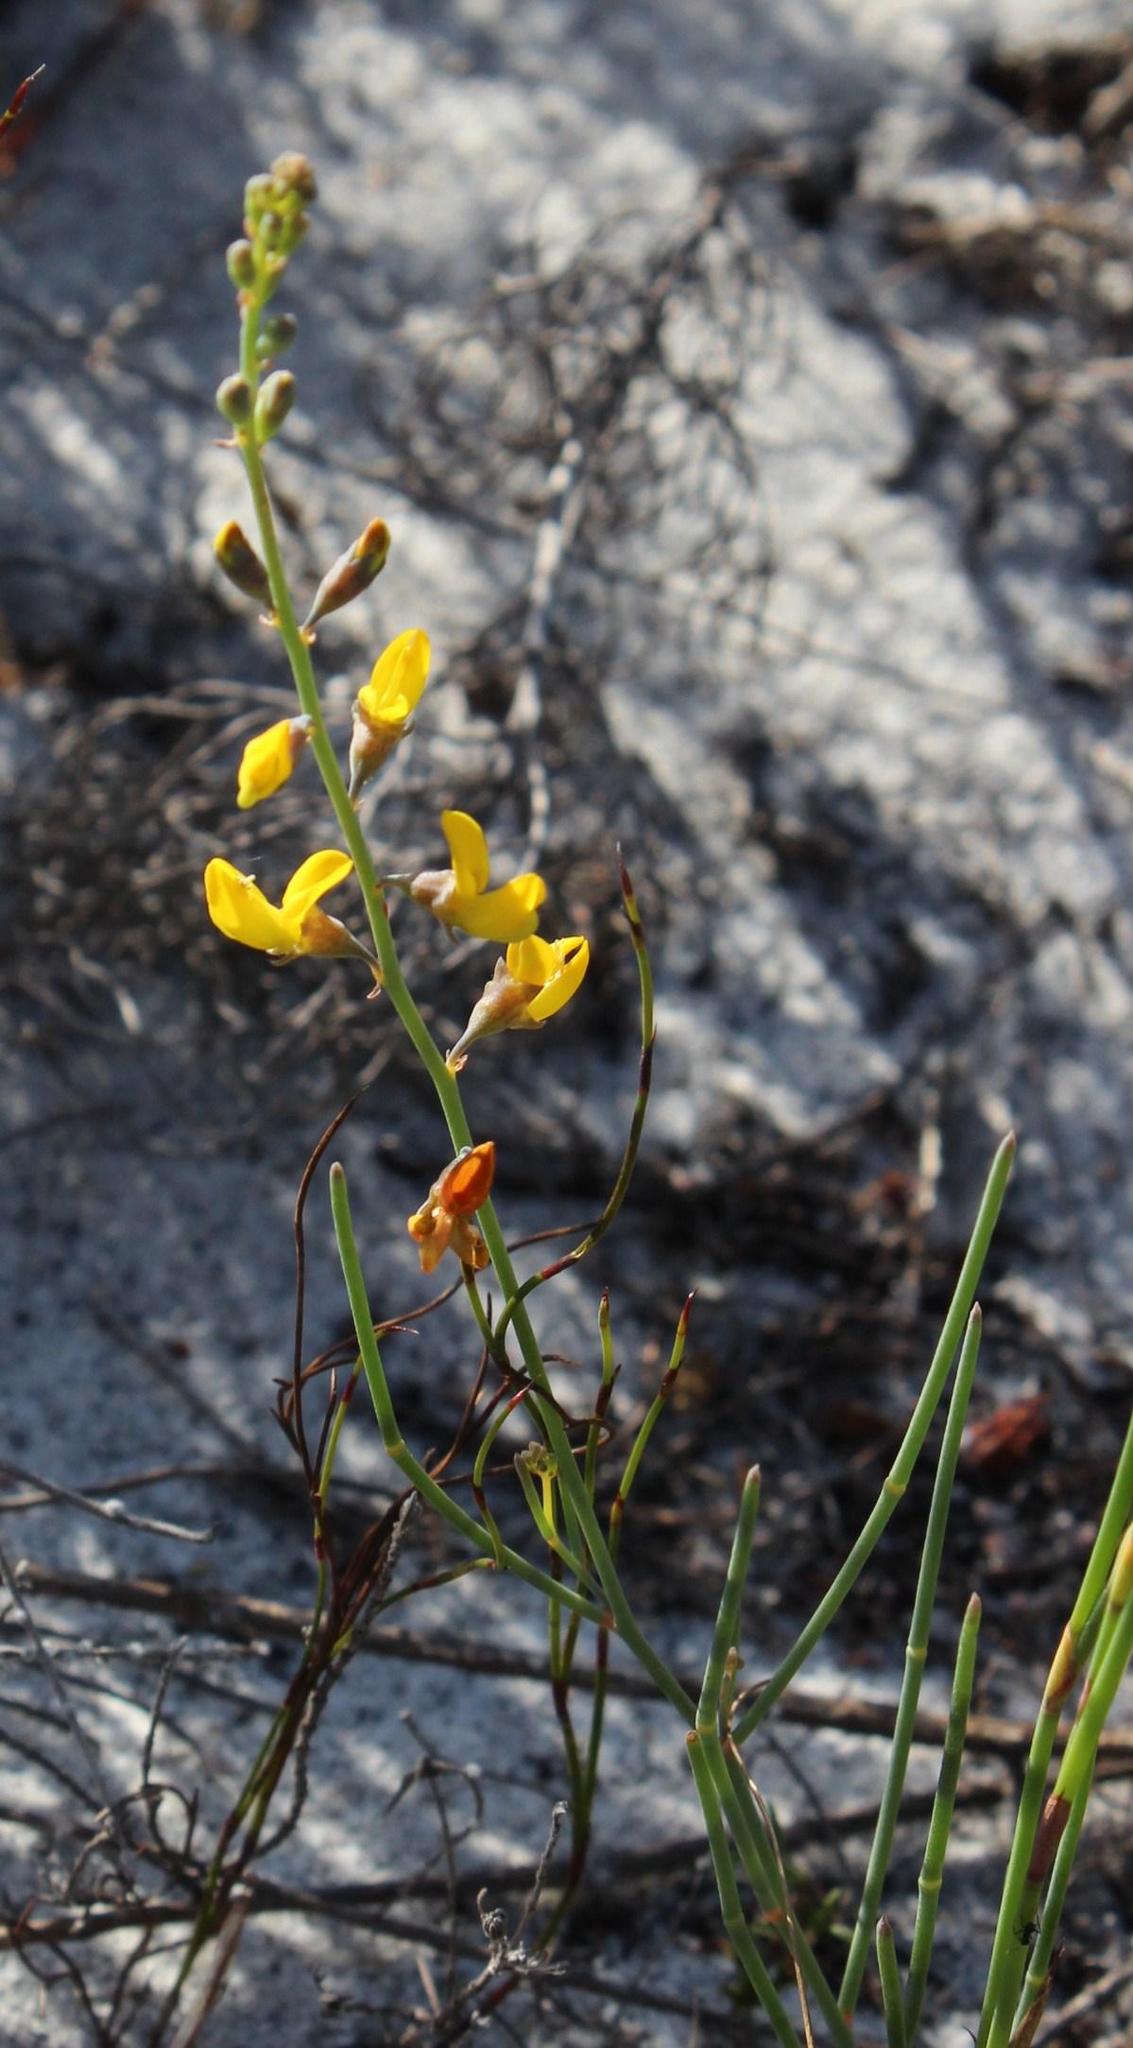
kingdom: Plantae
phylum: Tracheophyta
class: Magnoliopsida
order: Fabales
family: Fabaceae
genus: Lebeckia
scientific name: Lebeckia contaminata
